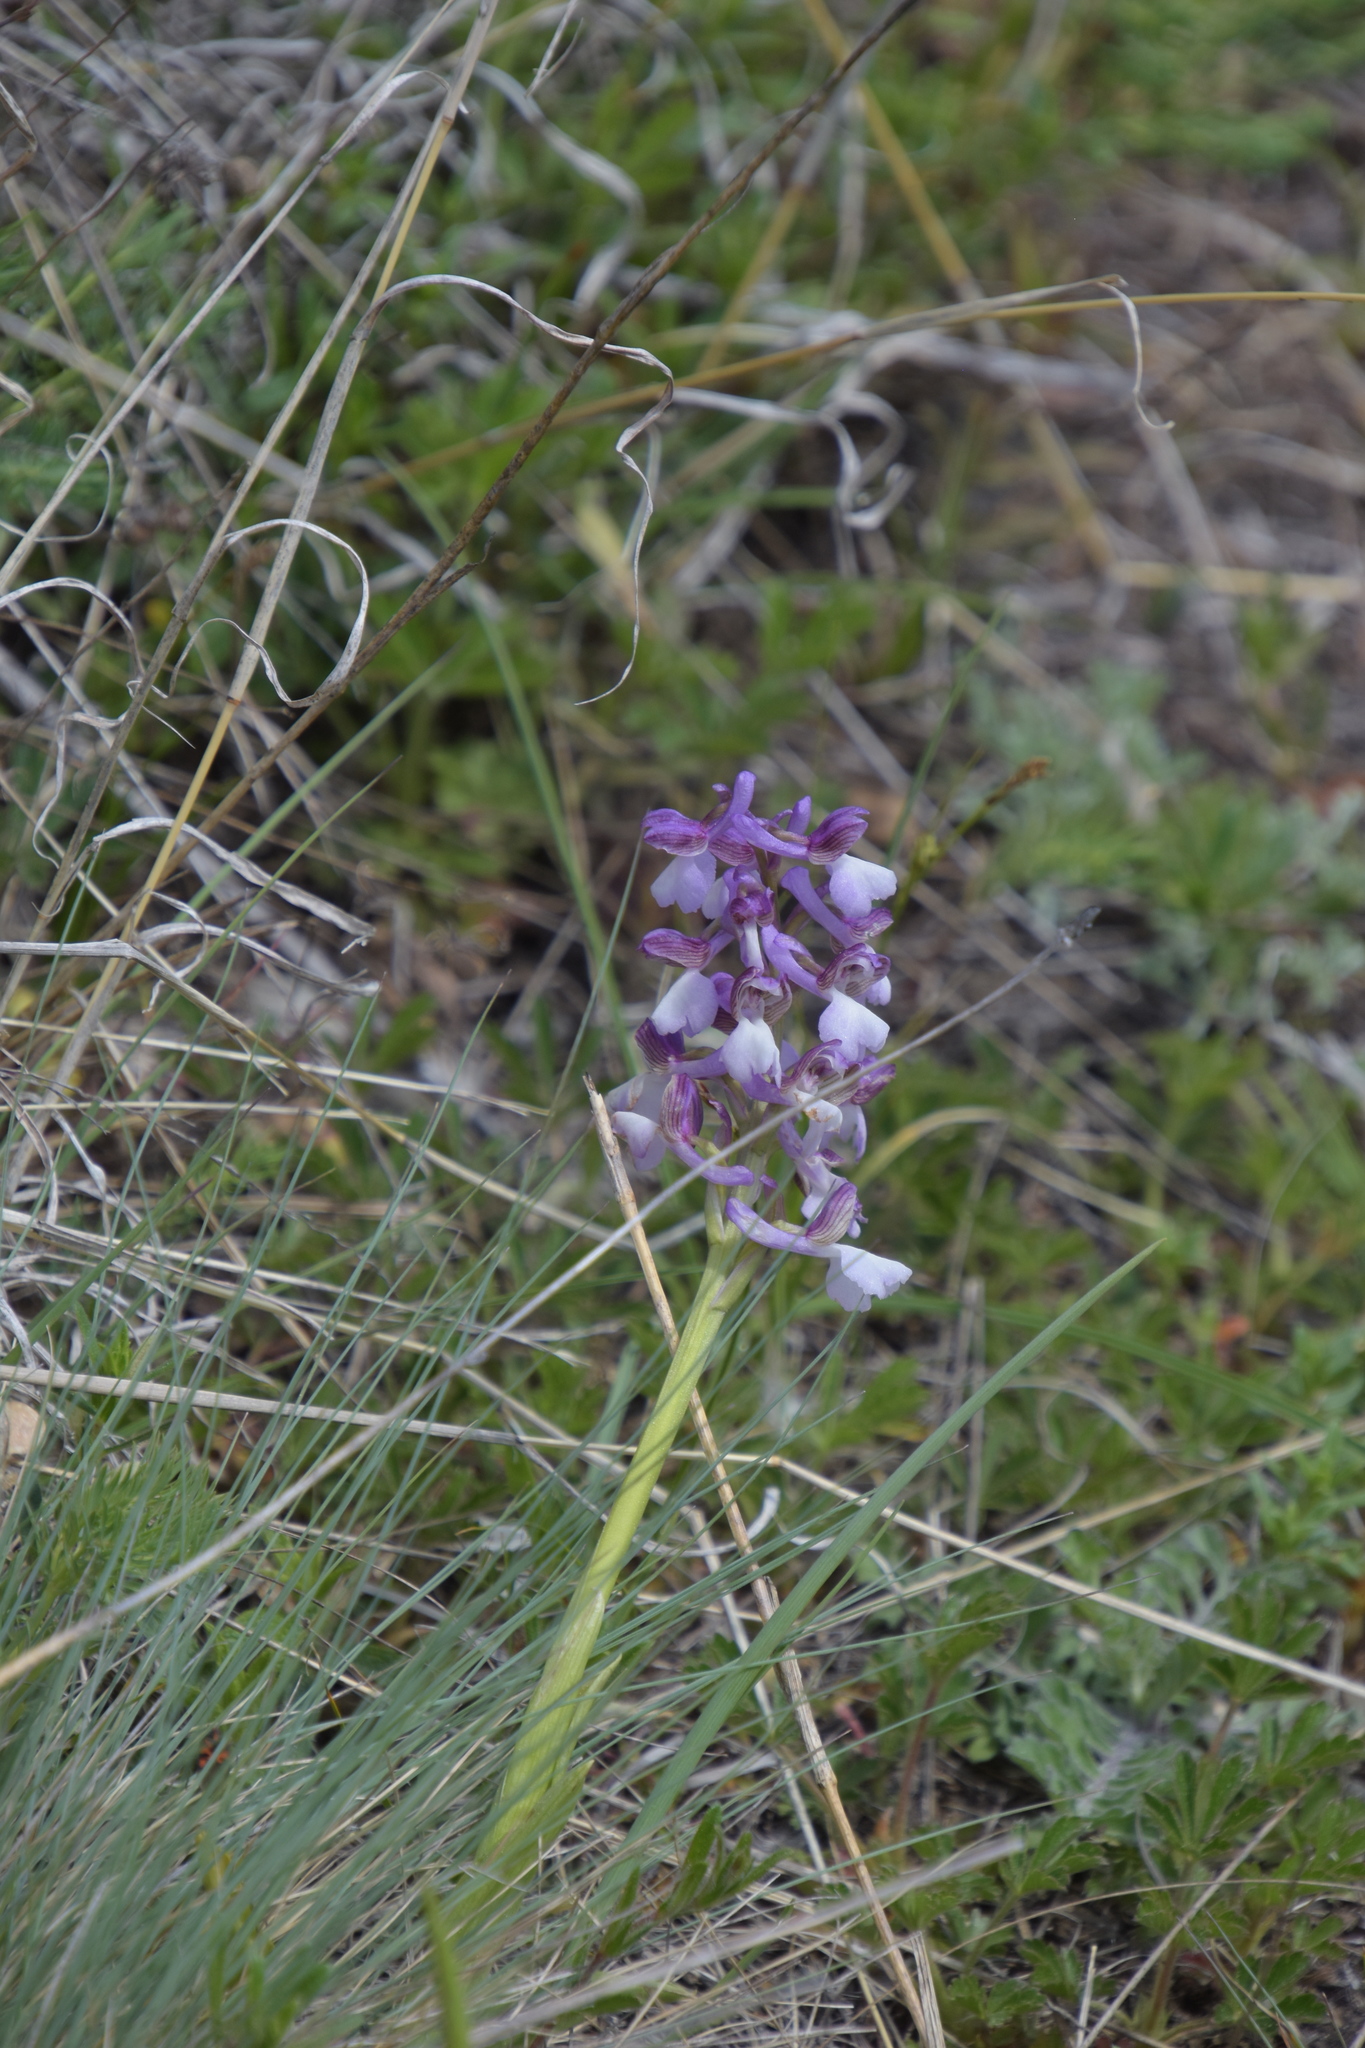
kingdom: Plantae
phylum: Tracheophyta
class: Liliopsida
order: Asparagales
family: Orchidaceae
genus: Anacamptis
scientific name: Anacamptis morio
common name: Green-winged orchid
